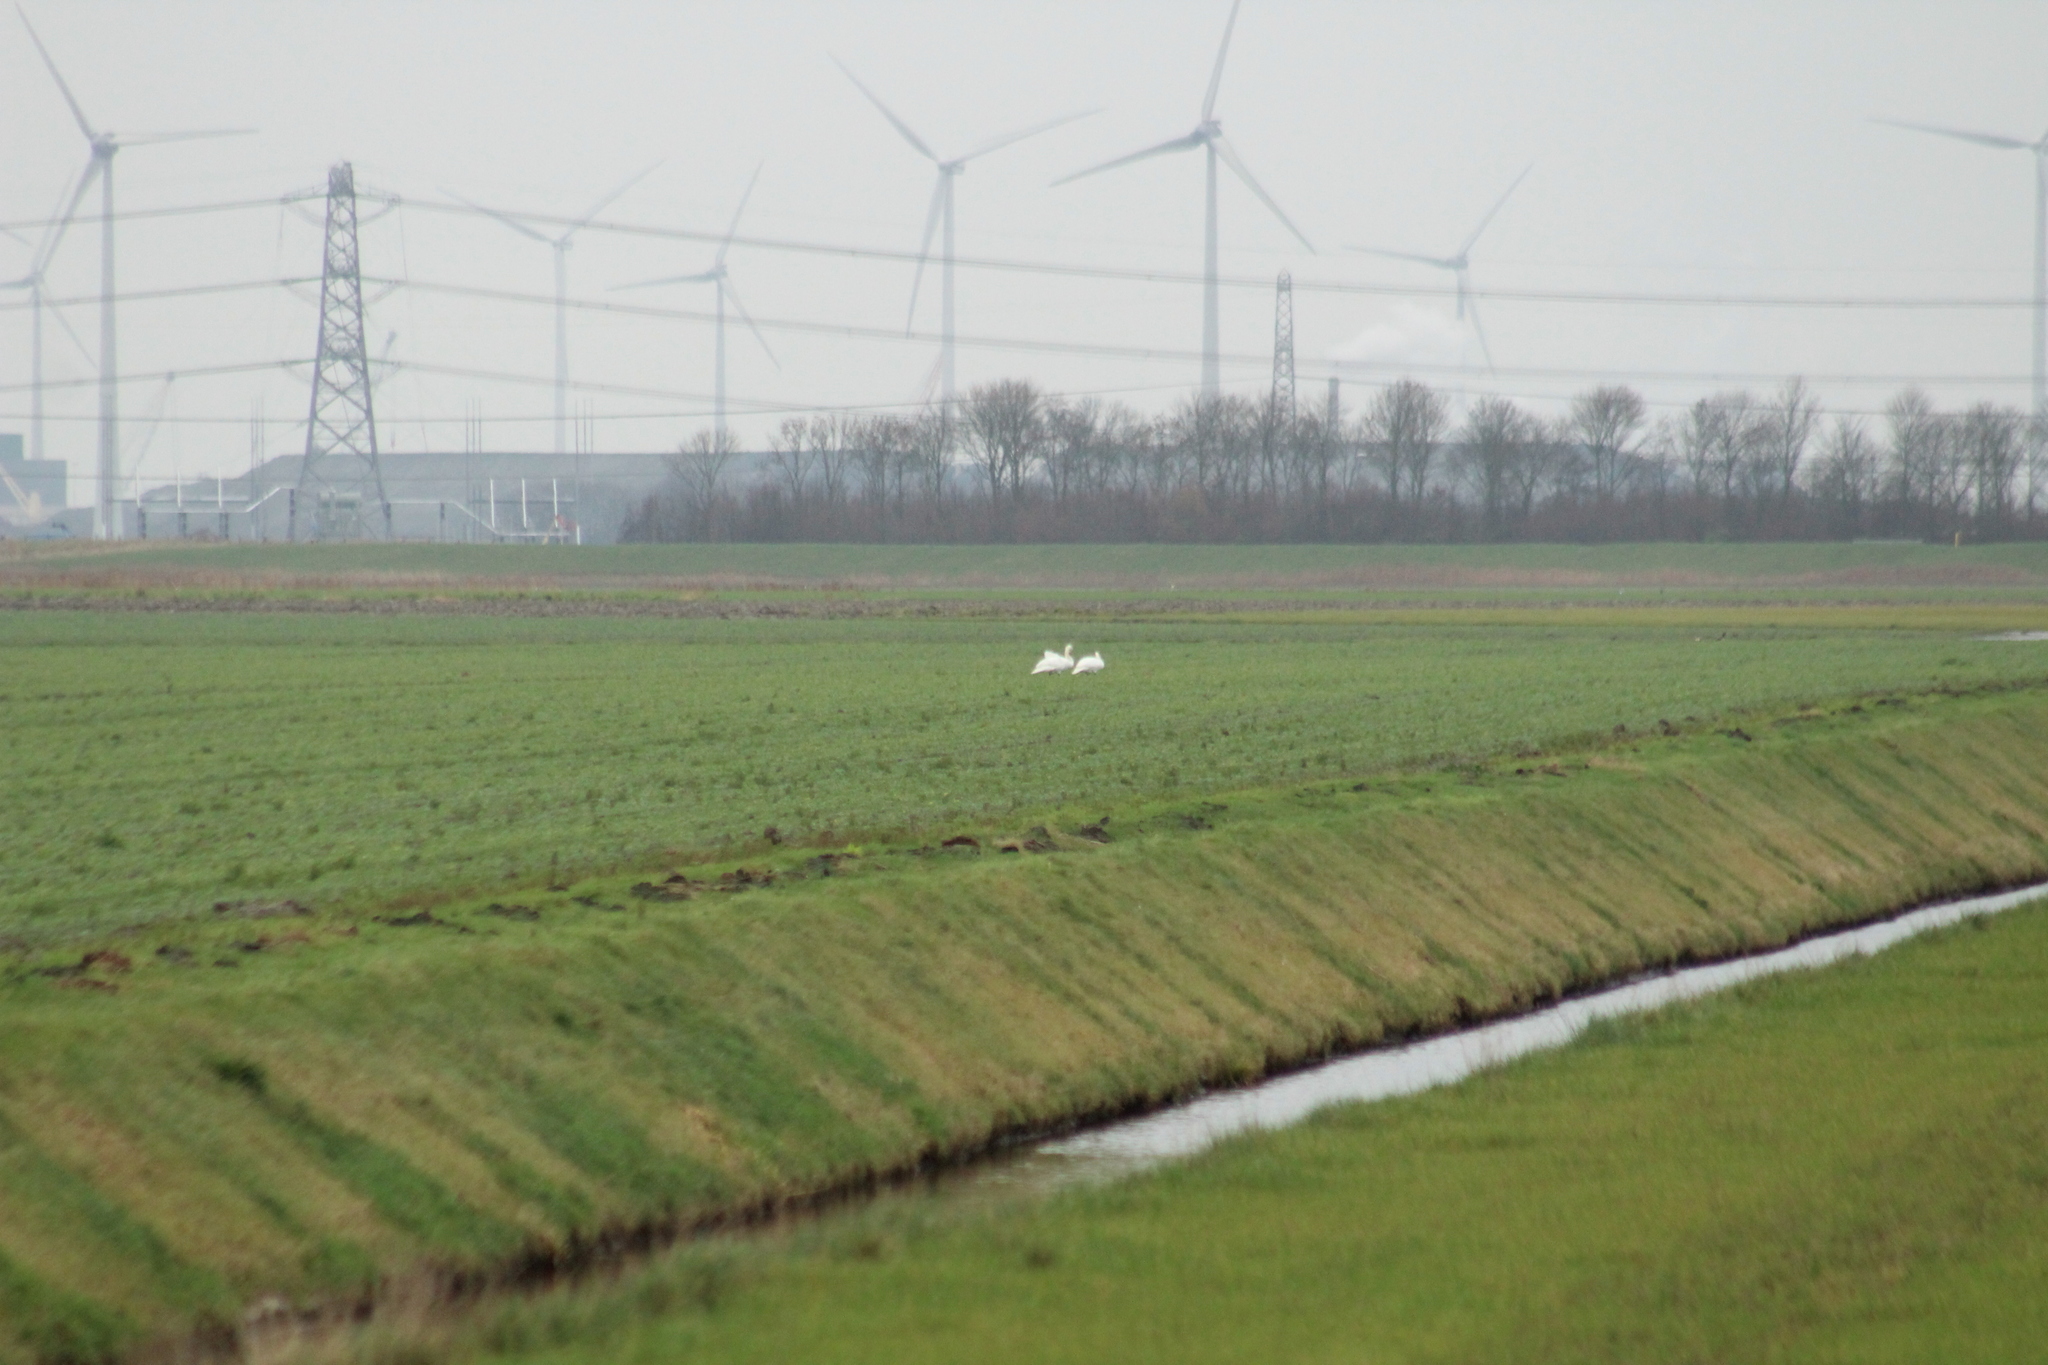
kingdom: Animalia
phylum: Chordata
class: Aves
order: Anseriformes
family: Anatidae
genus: Cygnus
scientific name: Cygnus olor
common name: Mute swan
